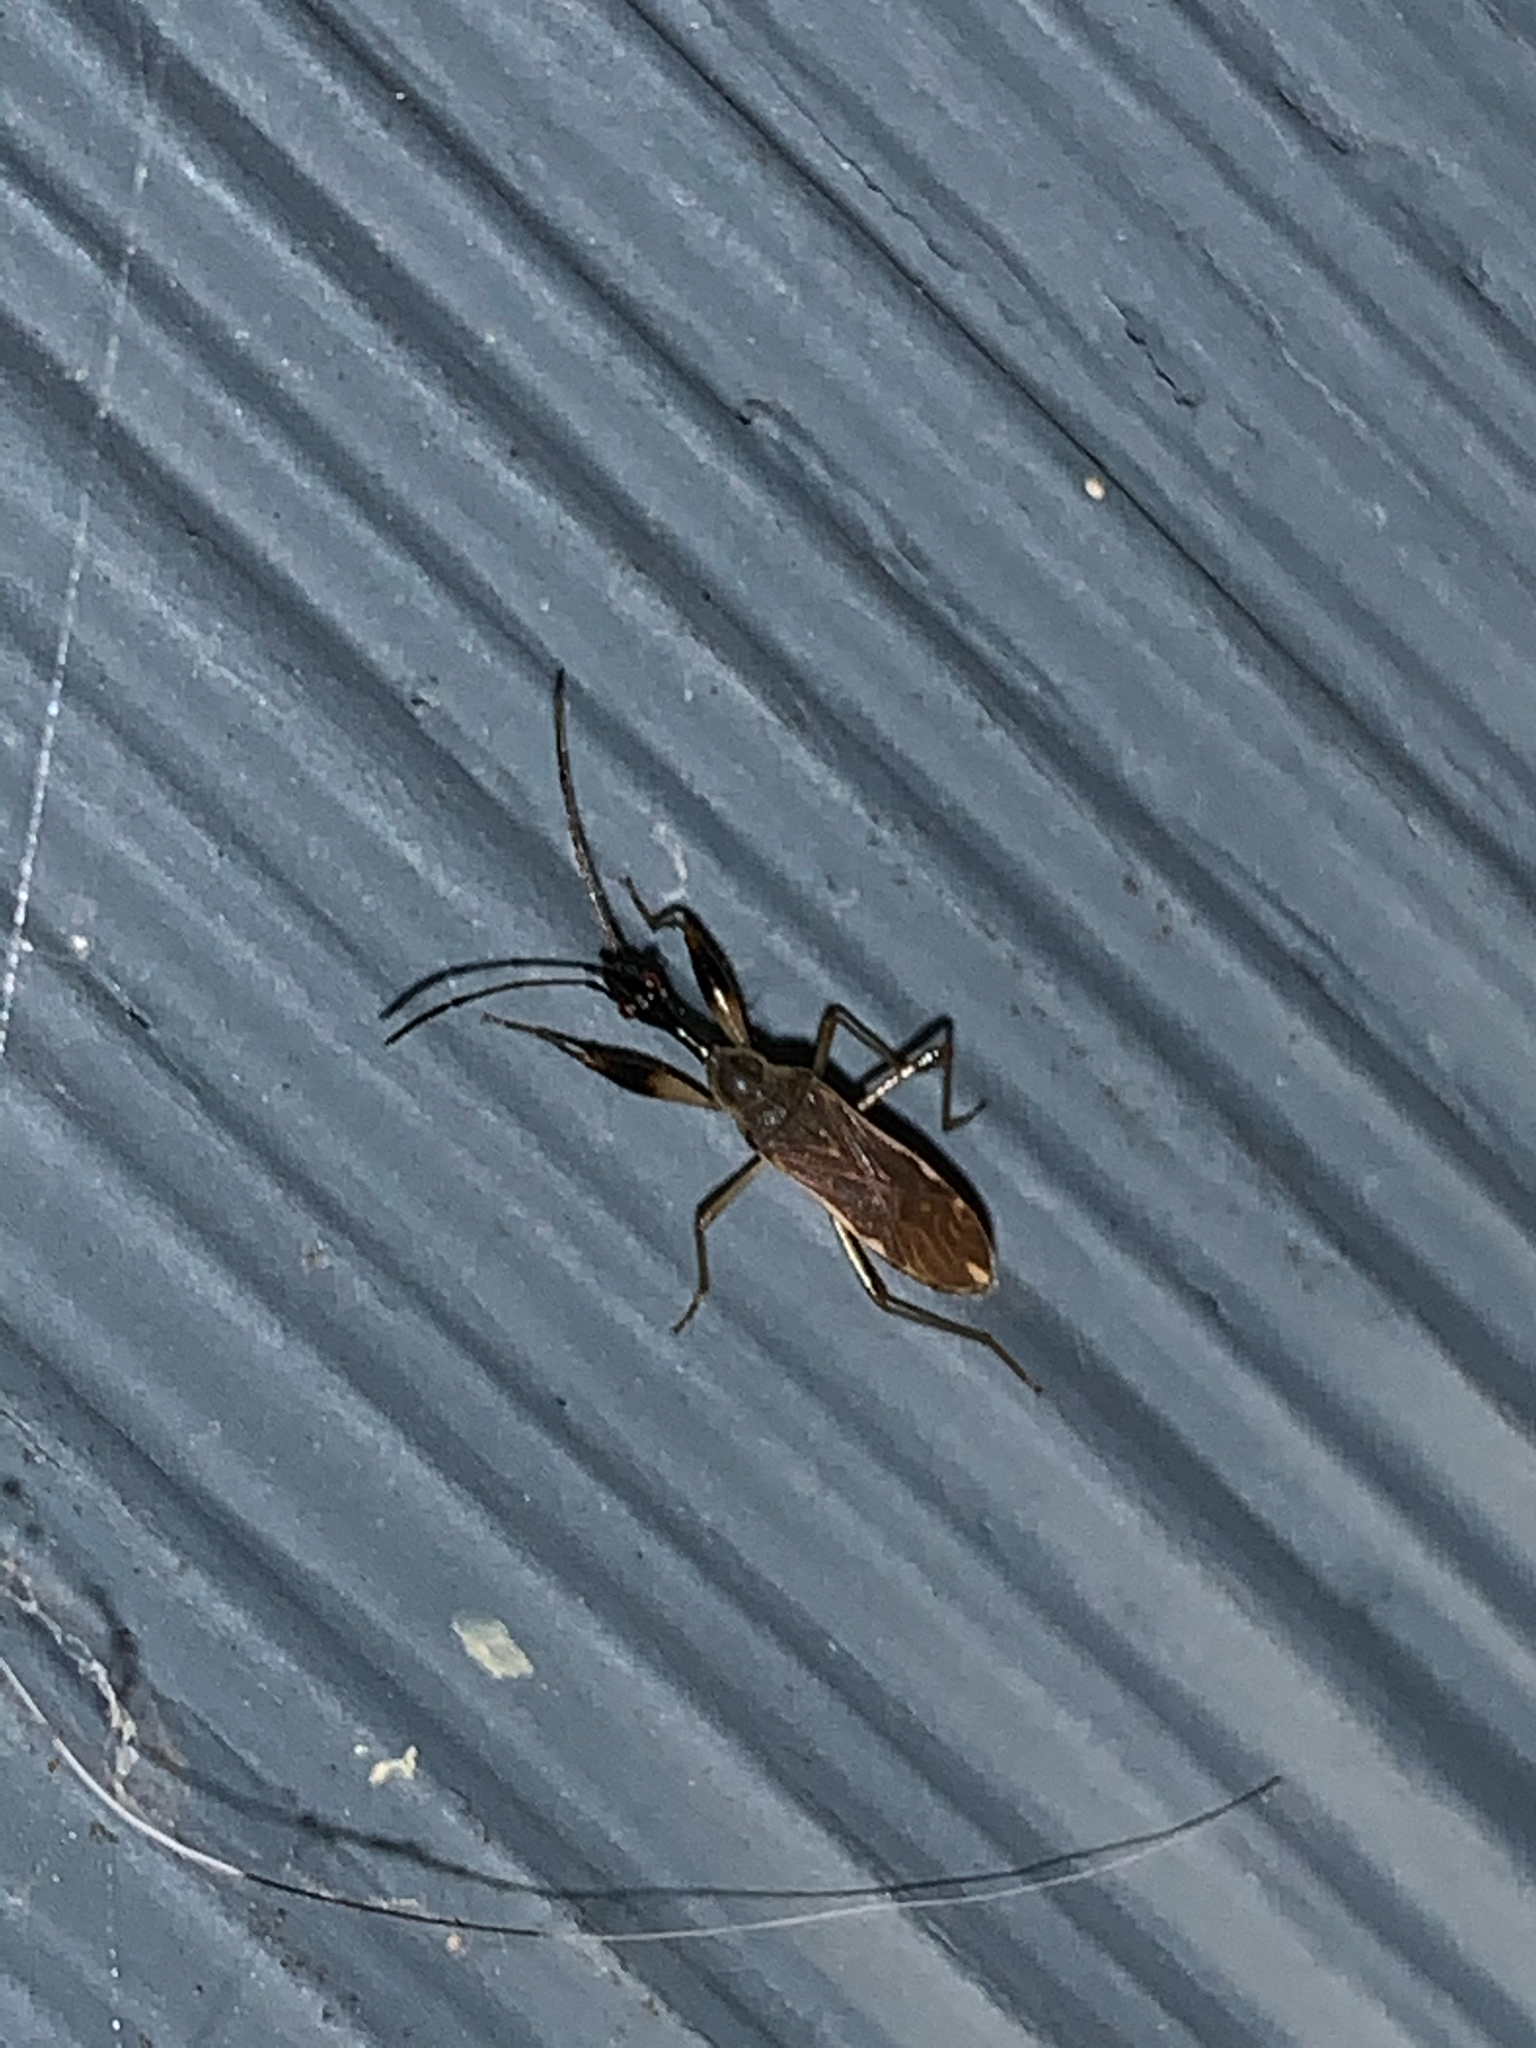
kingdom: Animalia
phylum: Arthropoda
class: Insecta
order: Hemiptera
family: Rhyparochromidae
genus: Myodocha
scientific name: Myodocha serripes
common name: Long-necked seed bug
